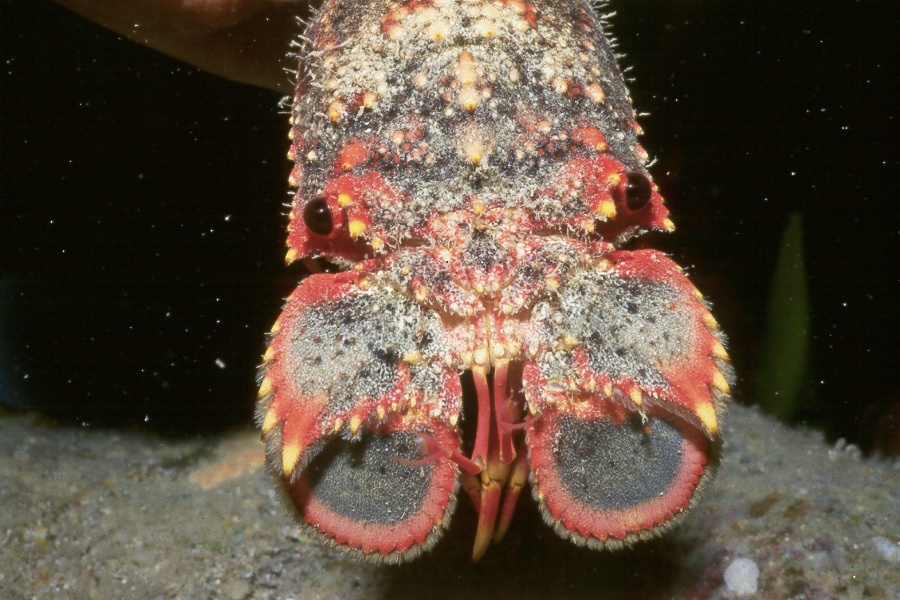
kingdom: Animalia
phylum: Arthropoda
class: Malacostraca
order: Decapoda
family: Scyllaridae
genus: Arctides
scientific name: Arctides regalis
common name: Royal spanish lobster
